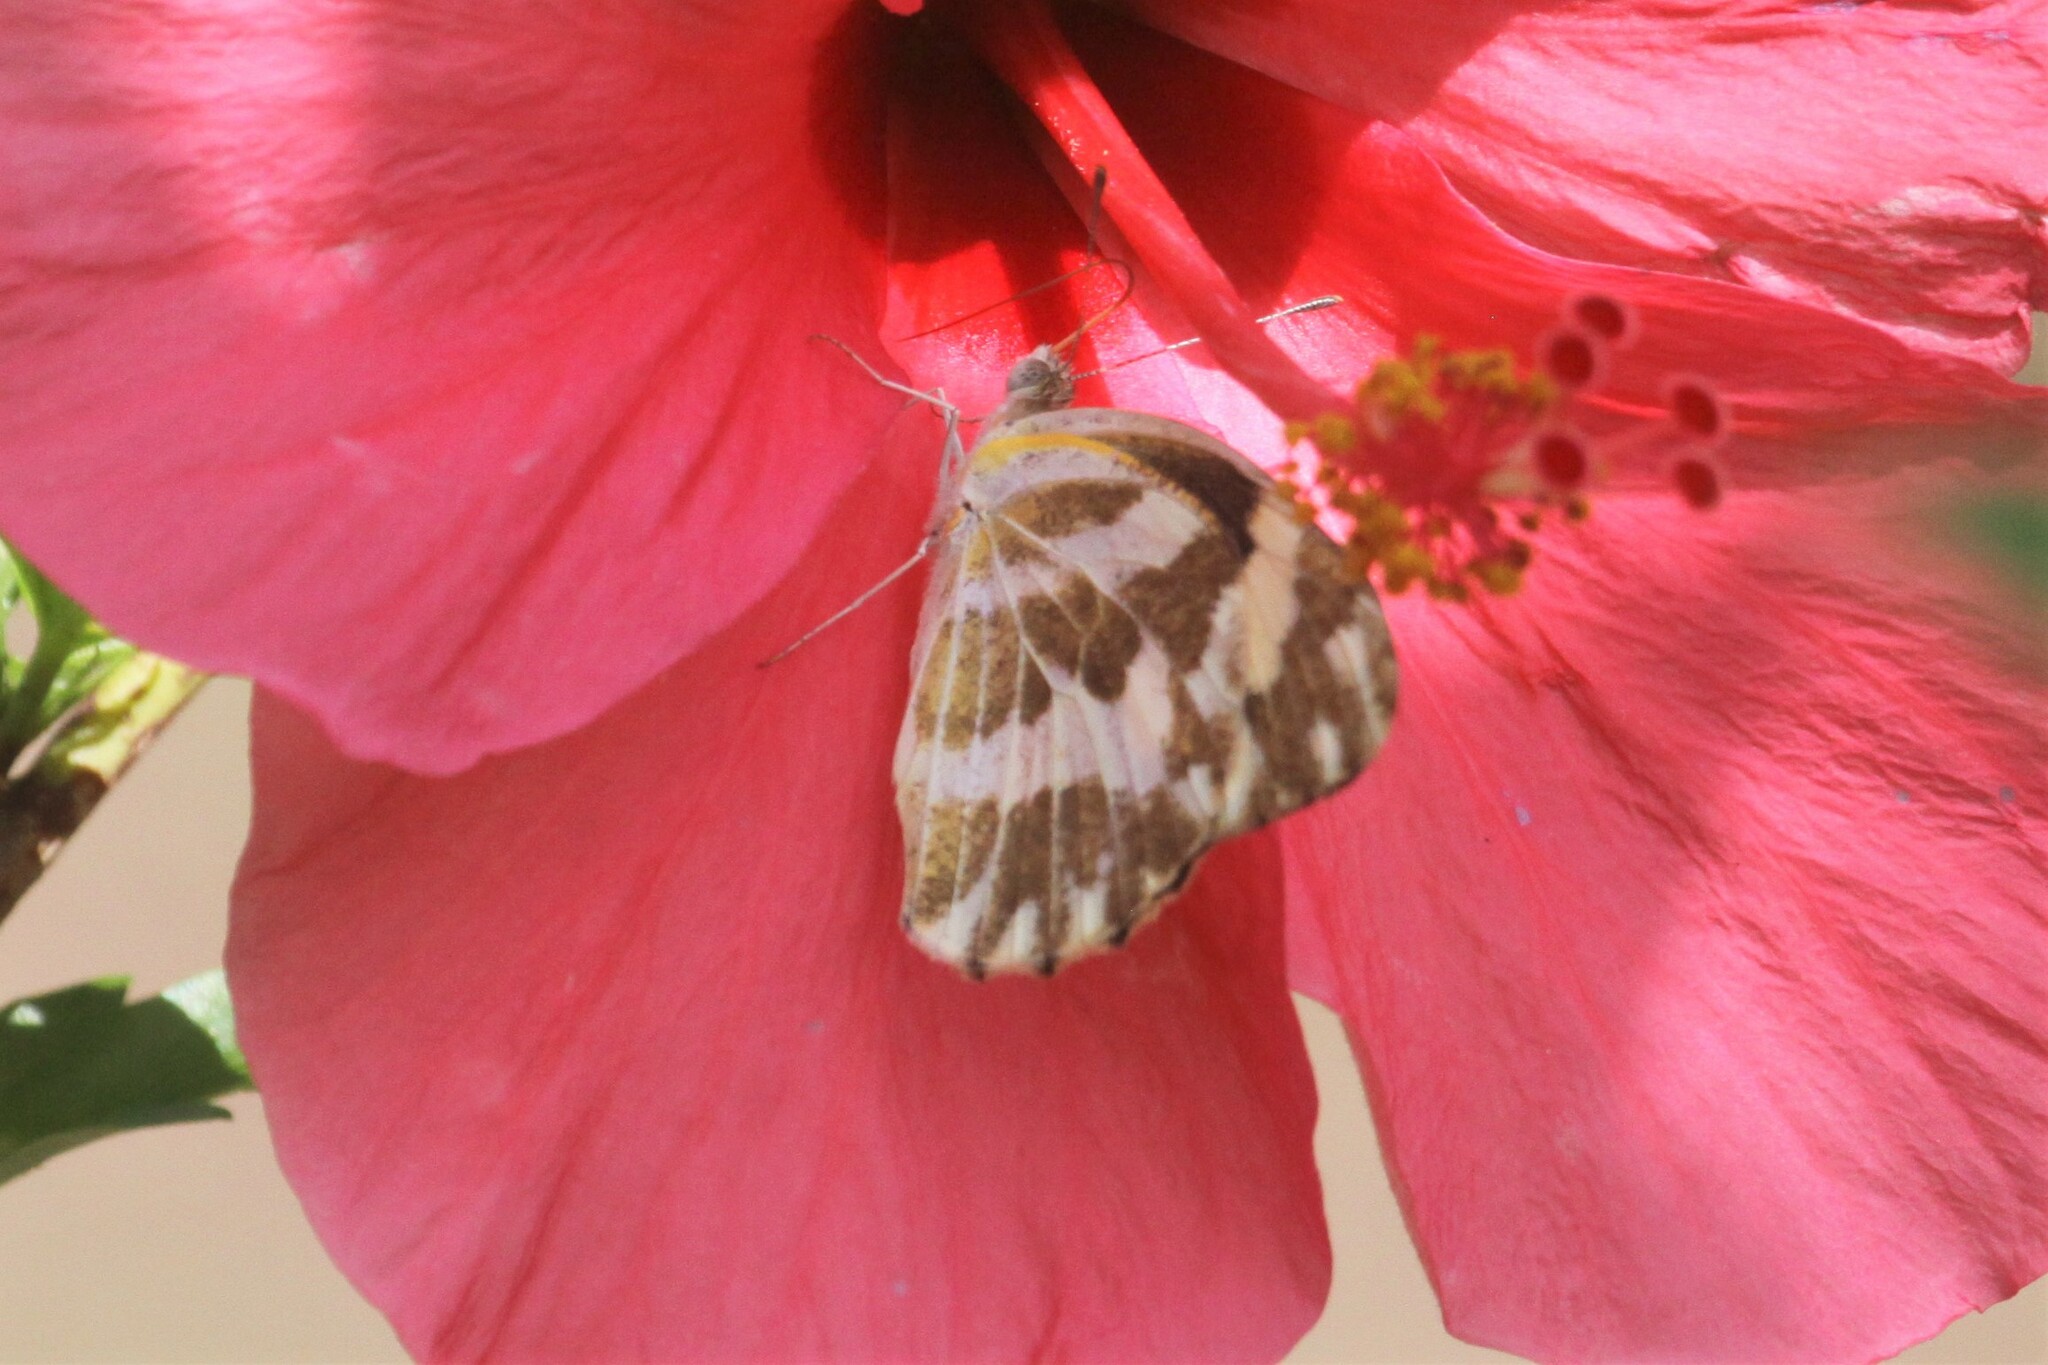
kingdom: Animalia
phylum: Arthropoda
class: Insecta
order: Lepidoptera
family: Pieridae
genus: Pinacopteryx
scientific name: Pinacopteryx eriphia
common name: Zebra white
